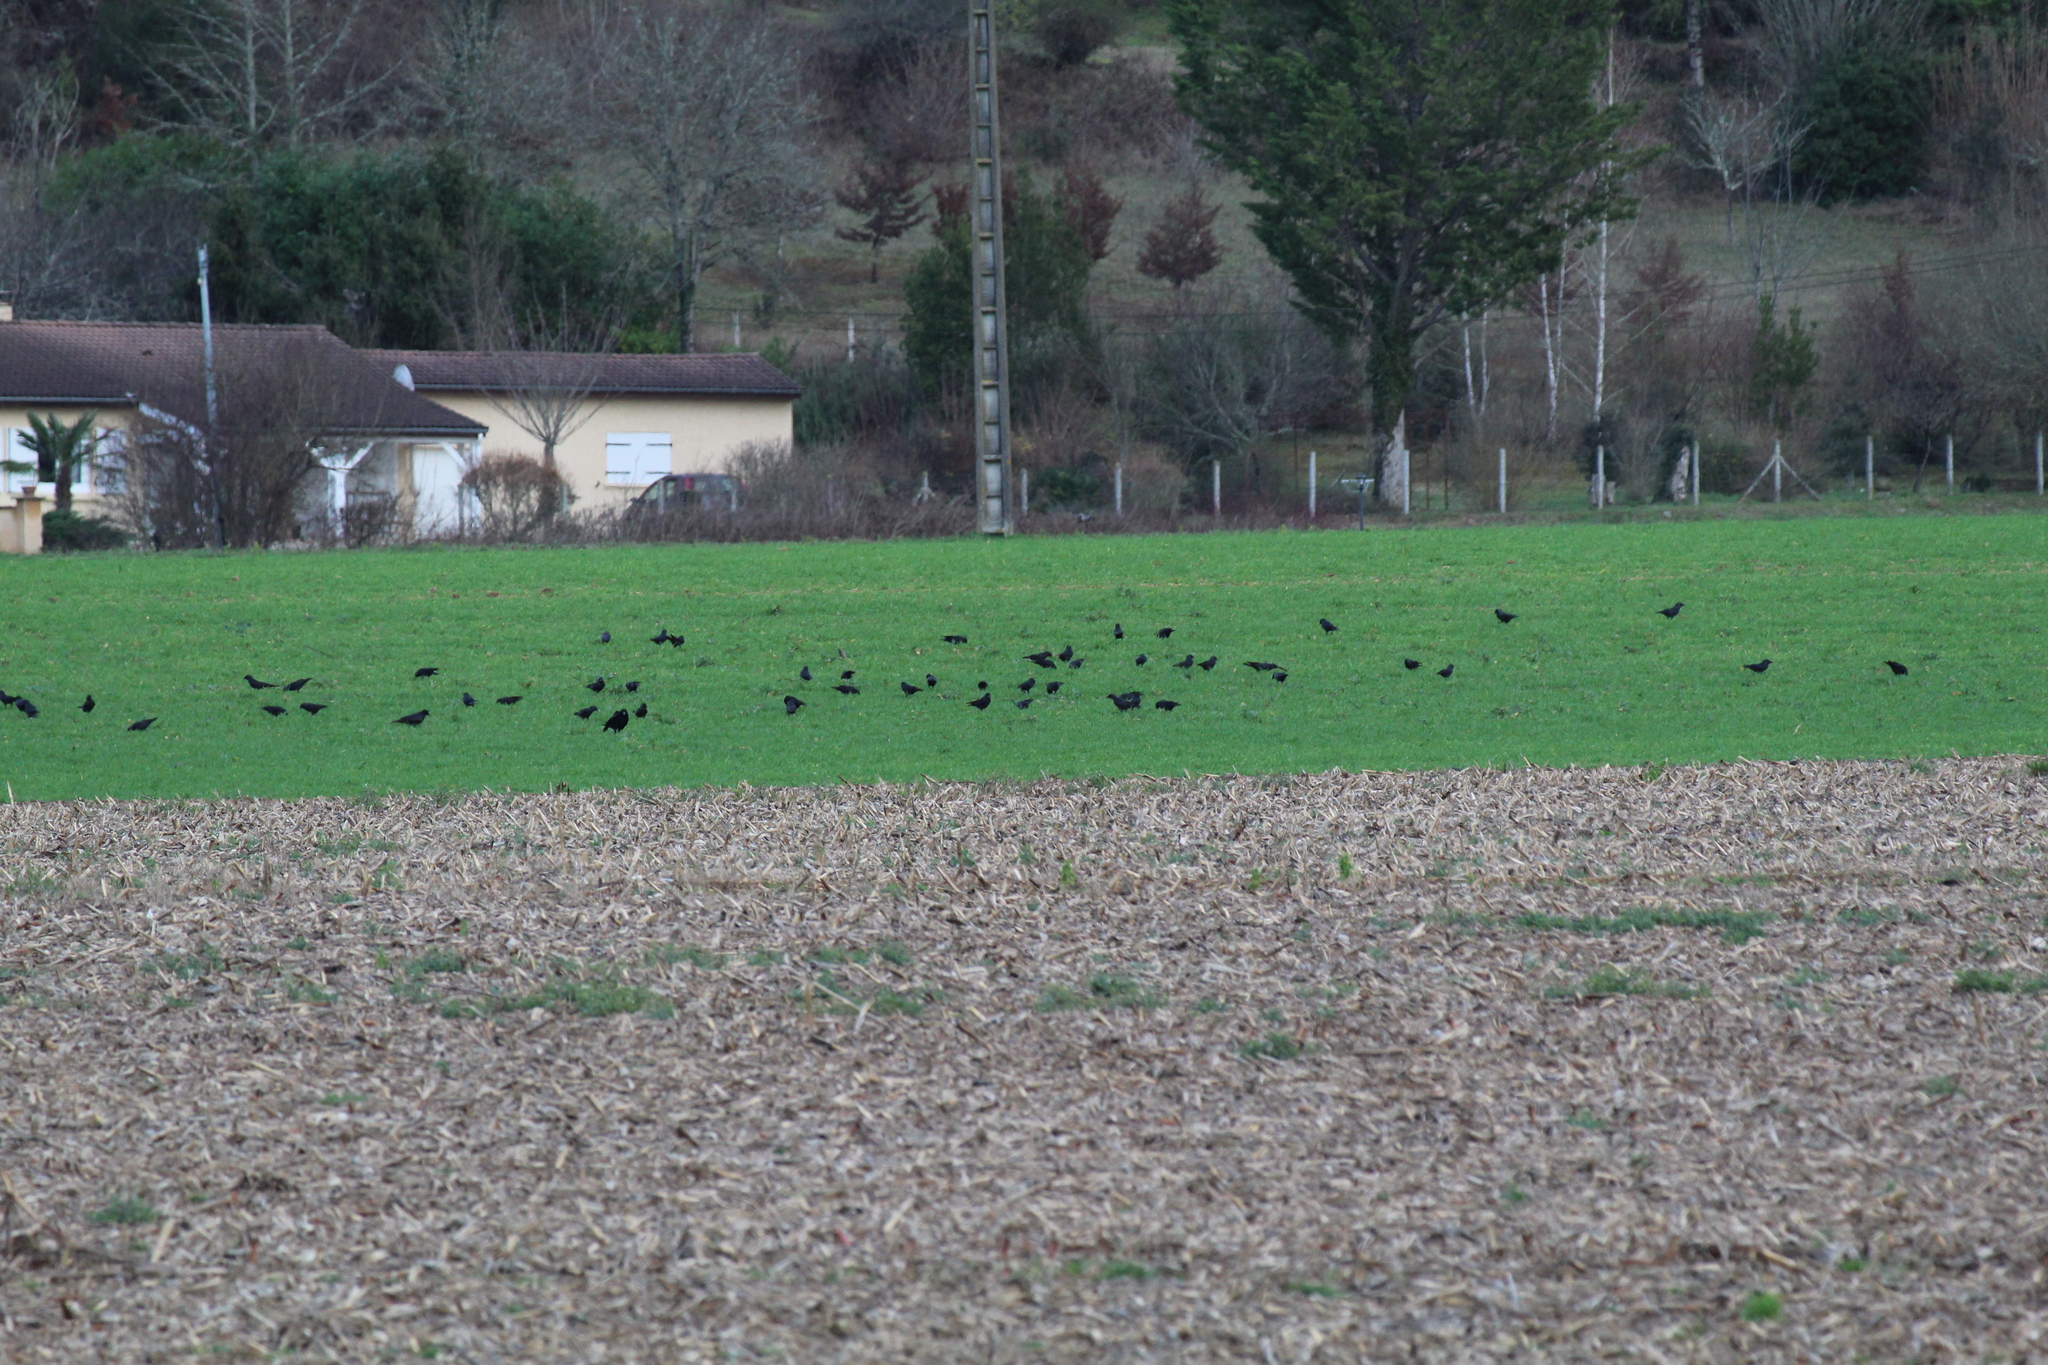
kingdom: Animalia
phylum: Chordata
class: Aves
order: Passeriformes
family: Corvidae
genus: Coloeus
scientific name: Coloeus monedula
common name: Western jackdaw
